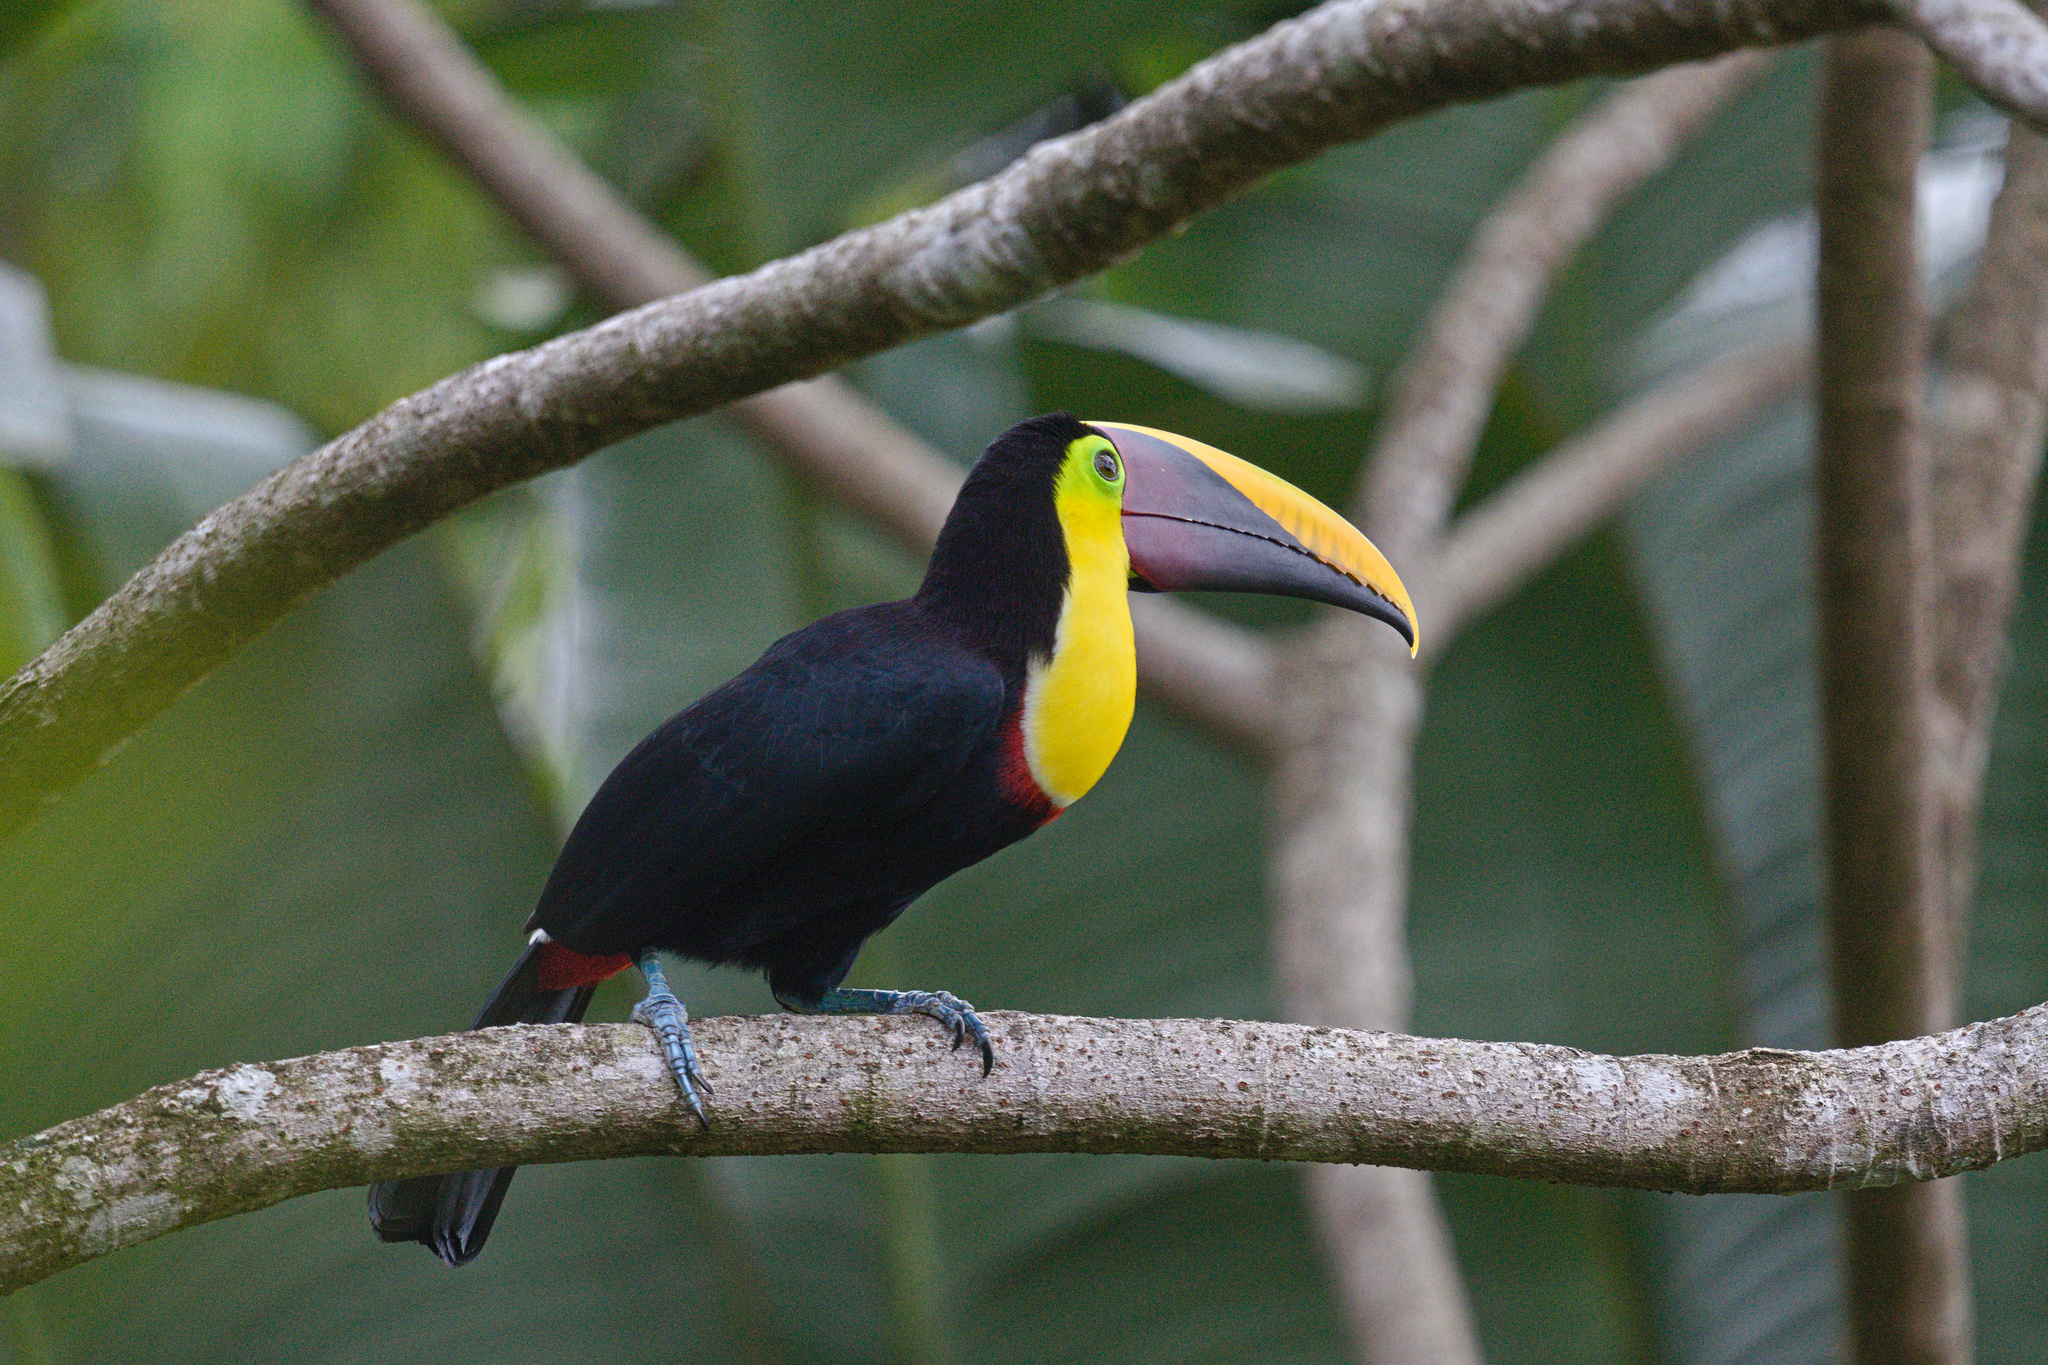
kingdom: Animalia
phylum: Chordata
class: Aves
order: Piciformes
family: Ramphastidae
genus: Ramphastos
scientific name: Ramphastos ambiguus
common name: Yellow-throated toucan
